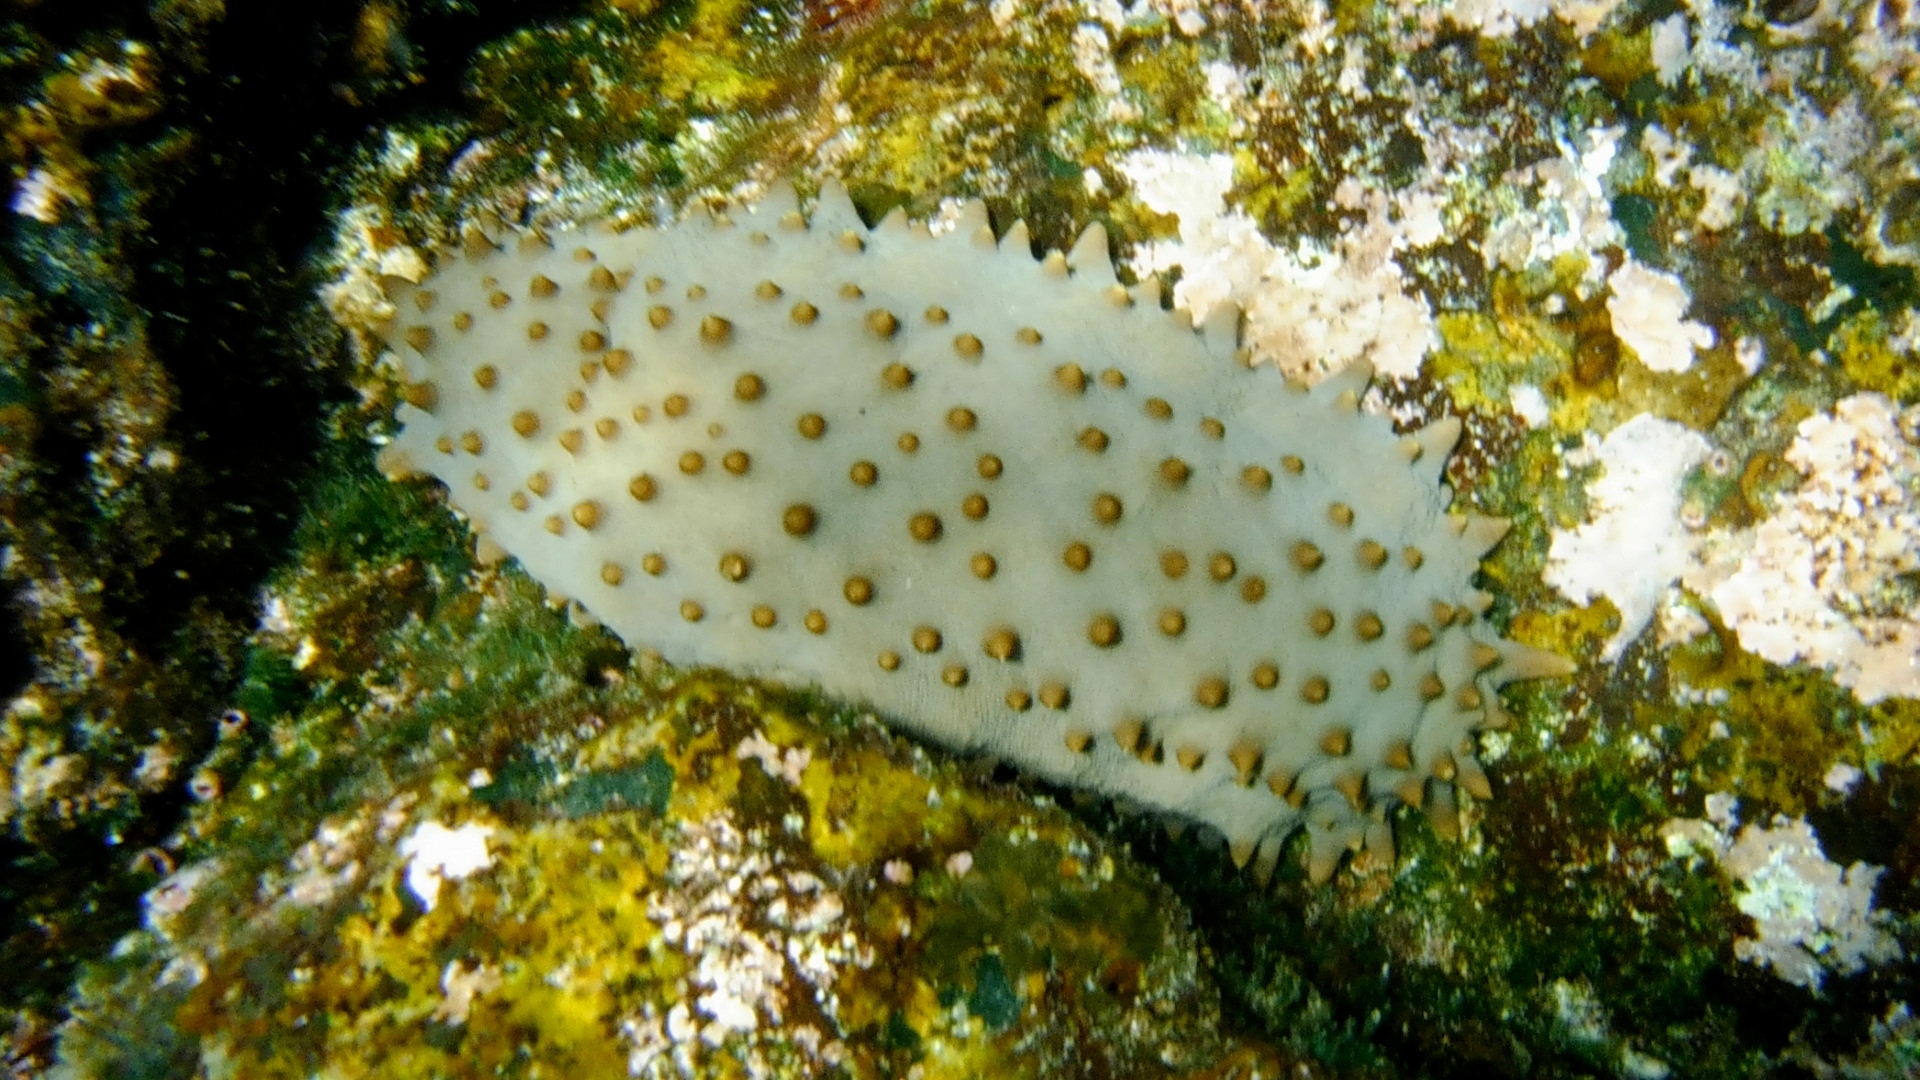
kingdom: Animalia
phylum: Echinodermata
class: Holothuroidea
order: Synallactida
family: Stichopodidae
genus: Isostichopus
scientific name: Isostichopus fuscus
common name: Brown sea cucumber
